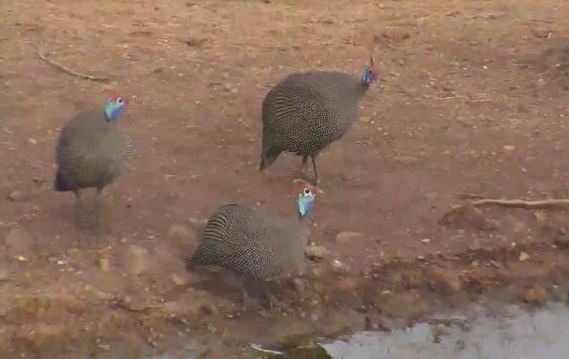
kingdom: Animalia
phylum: Chordata
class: Aves
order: Galliformes
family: Numididae
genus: Numida
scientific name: Numida meleagris
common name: Helmeted guineafowl
